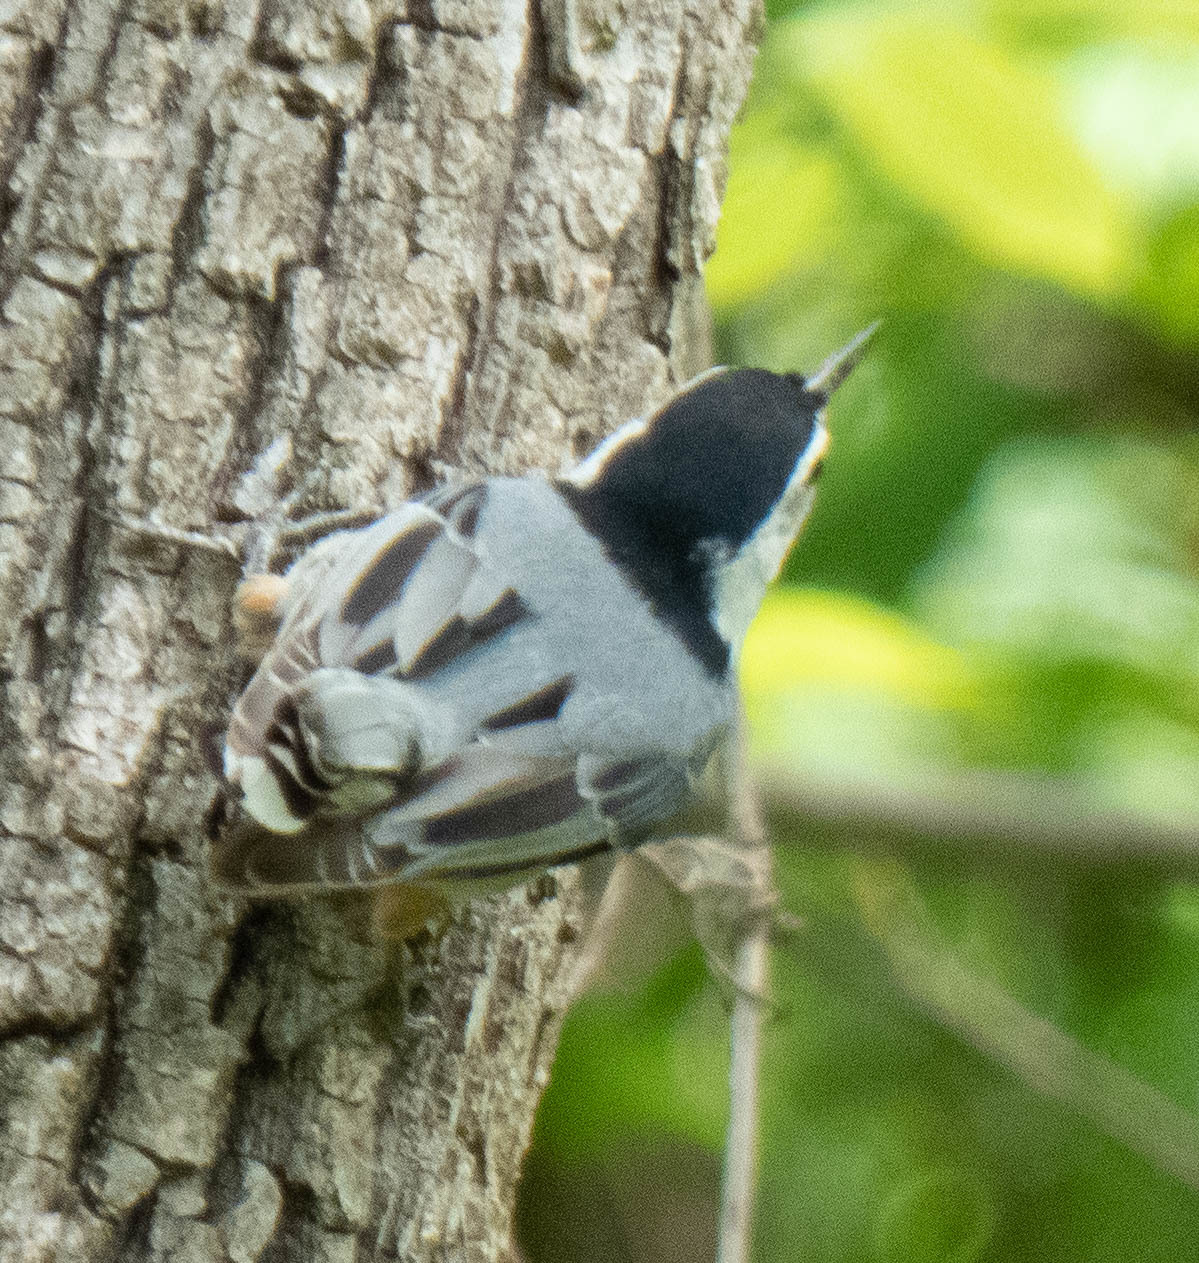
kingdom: Animalia
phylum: Chordata
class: Aves
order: Passeriformes
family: Sittidae
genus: Sitta
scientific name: Sitta carolinensis
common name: White-breasted nuthatch
